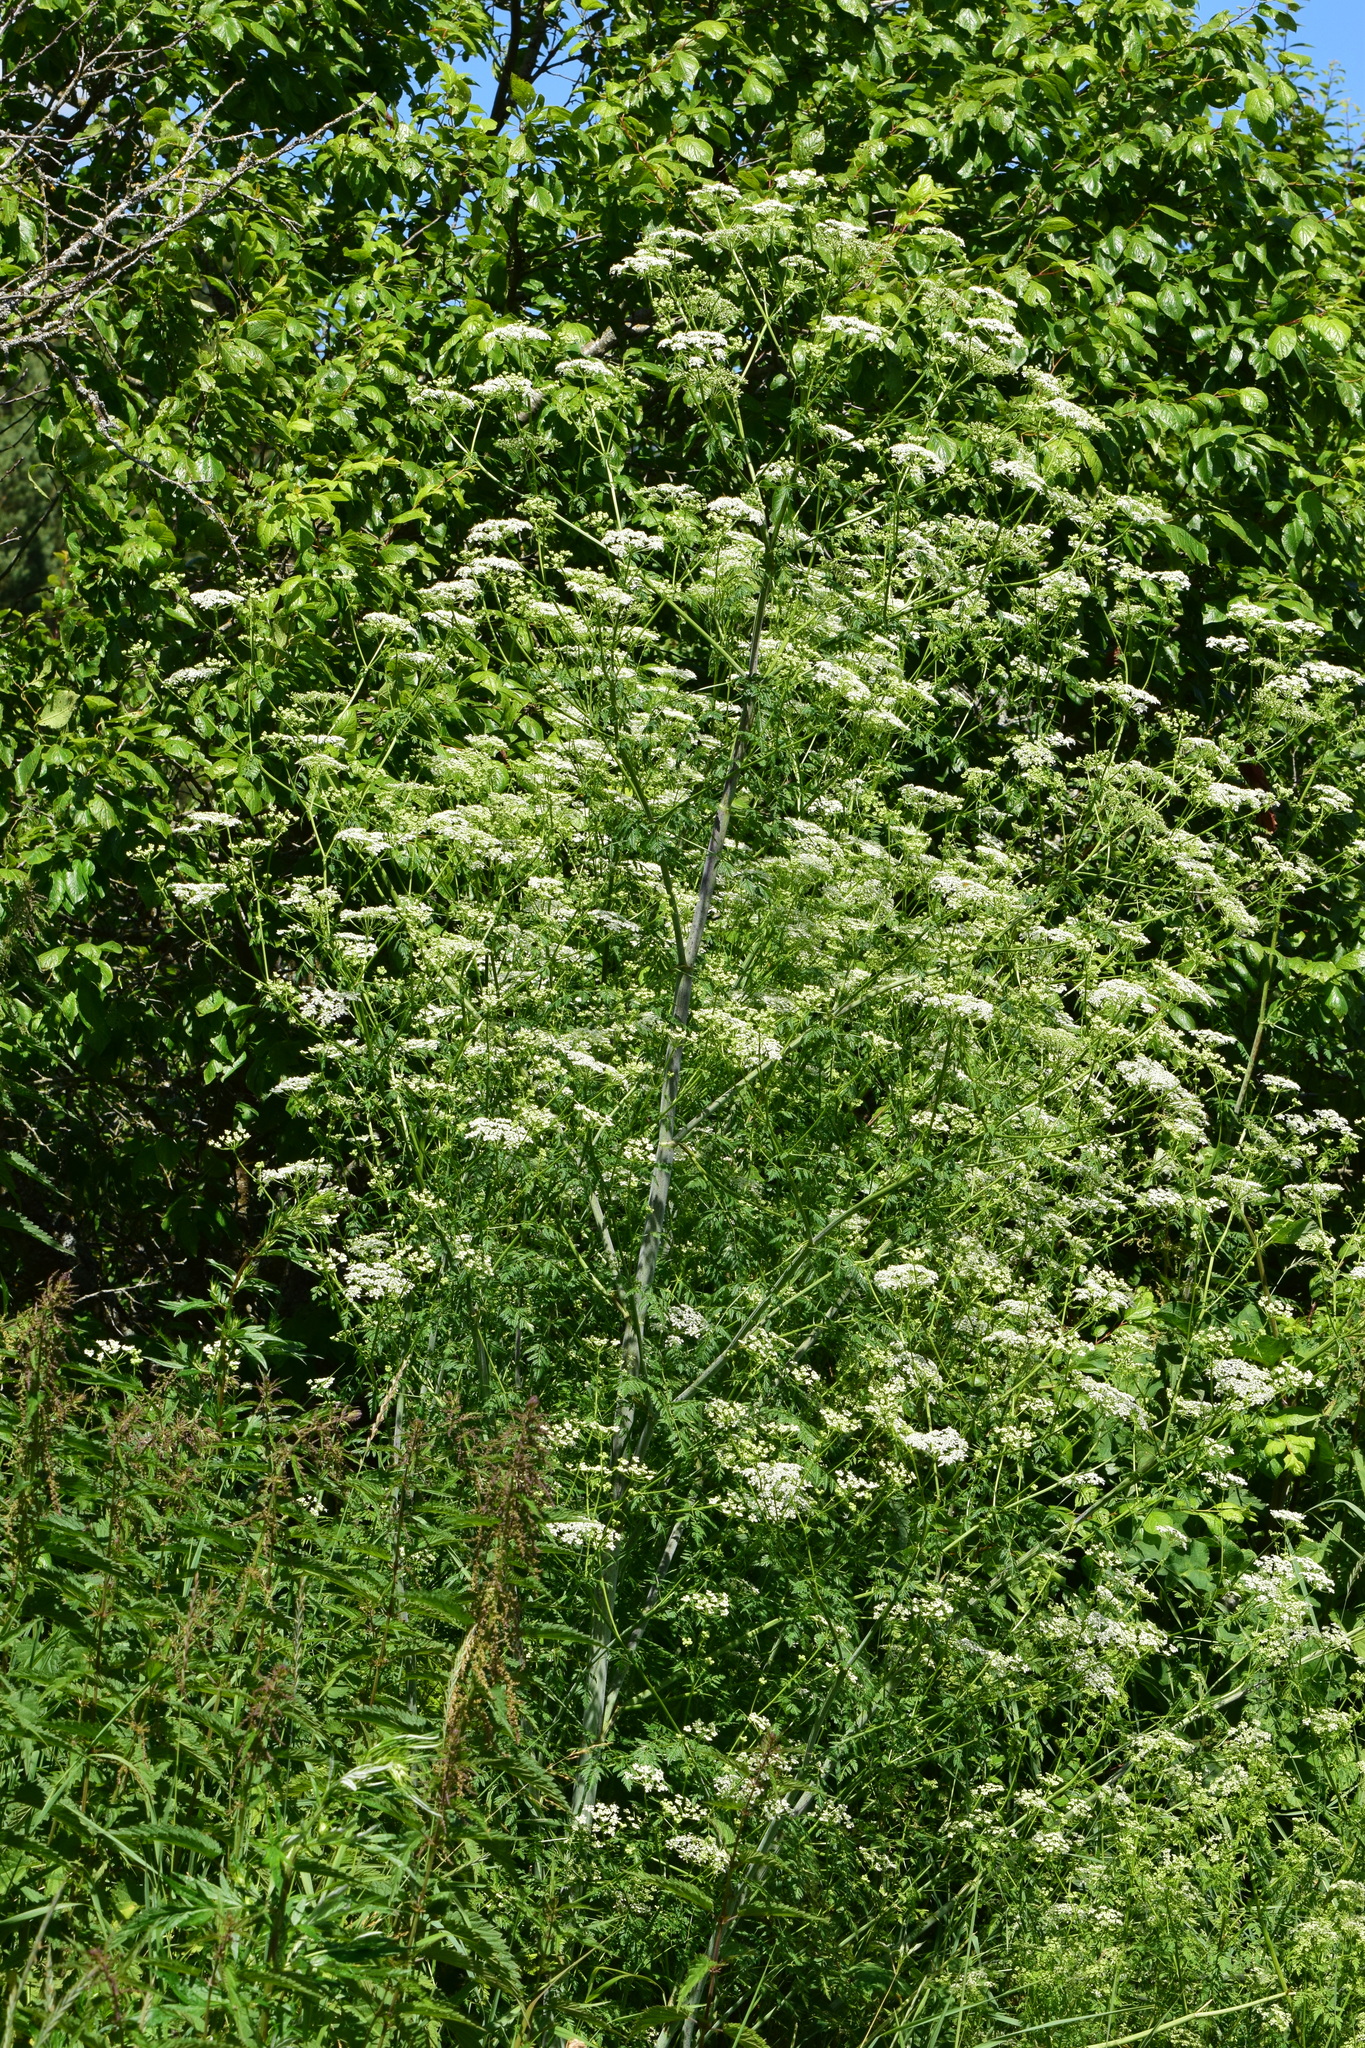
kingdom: Plantae
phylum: Tracheophyta
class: Magnoliopsida
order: Apiales
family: Apiaceae
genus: Conium
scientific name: Conium maculatum
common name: Hemlock
